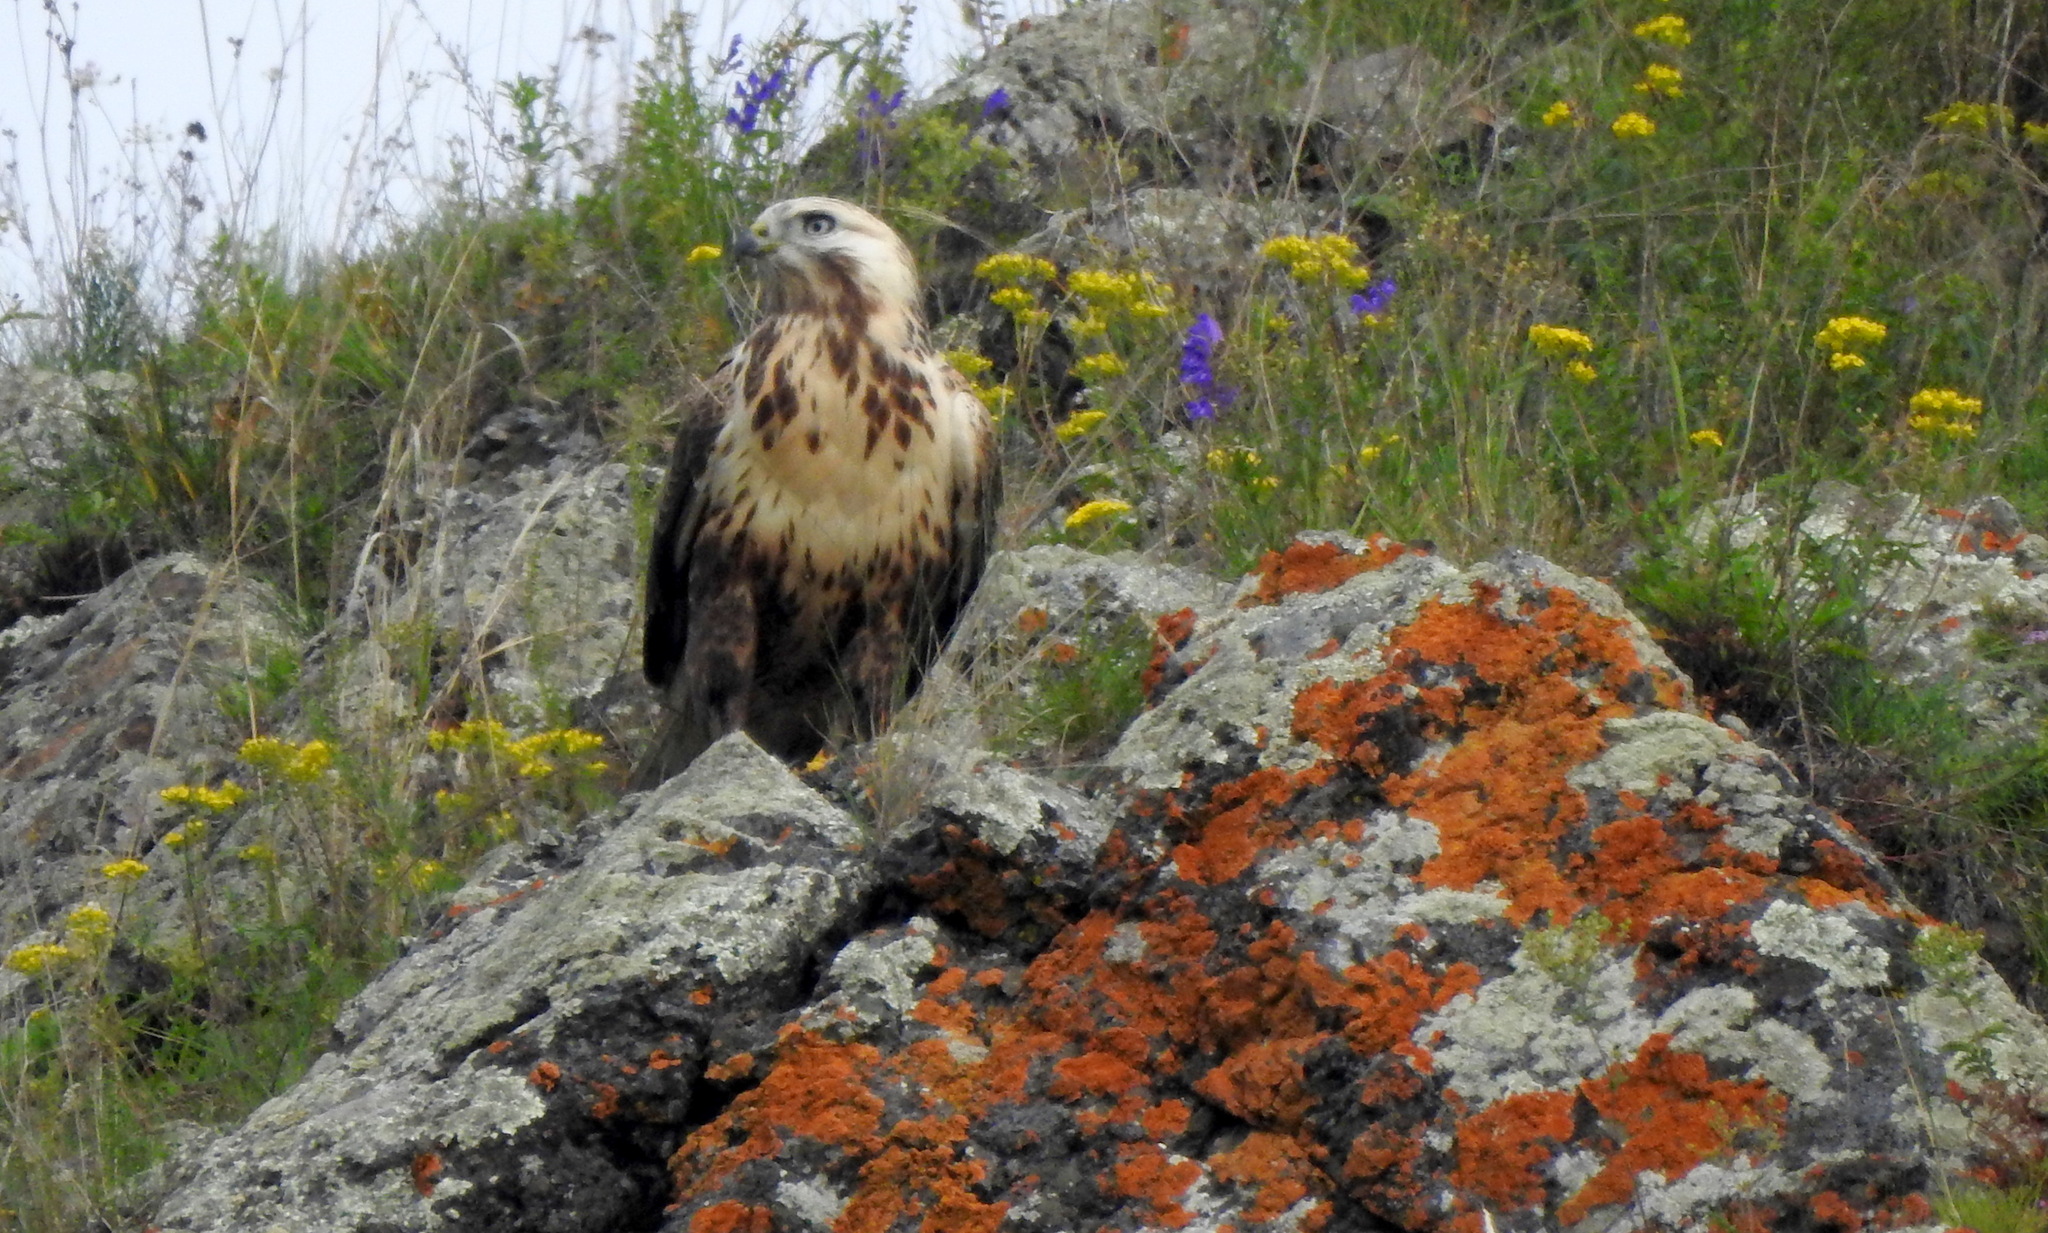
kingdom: Animalia
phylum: Chordata
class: Aves
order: Accipitriformes
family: Accipitridae
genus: Buteo
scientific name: Buteo hemilasius
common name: Upland buzzard
